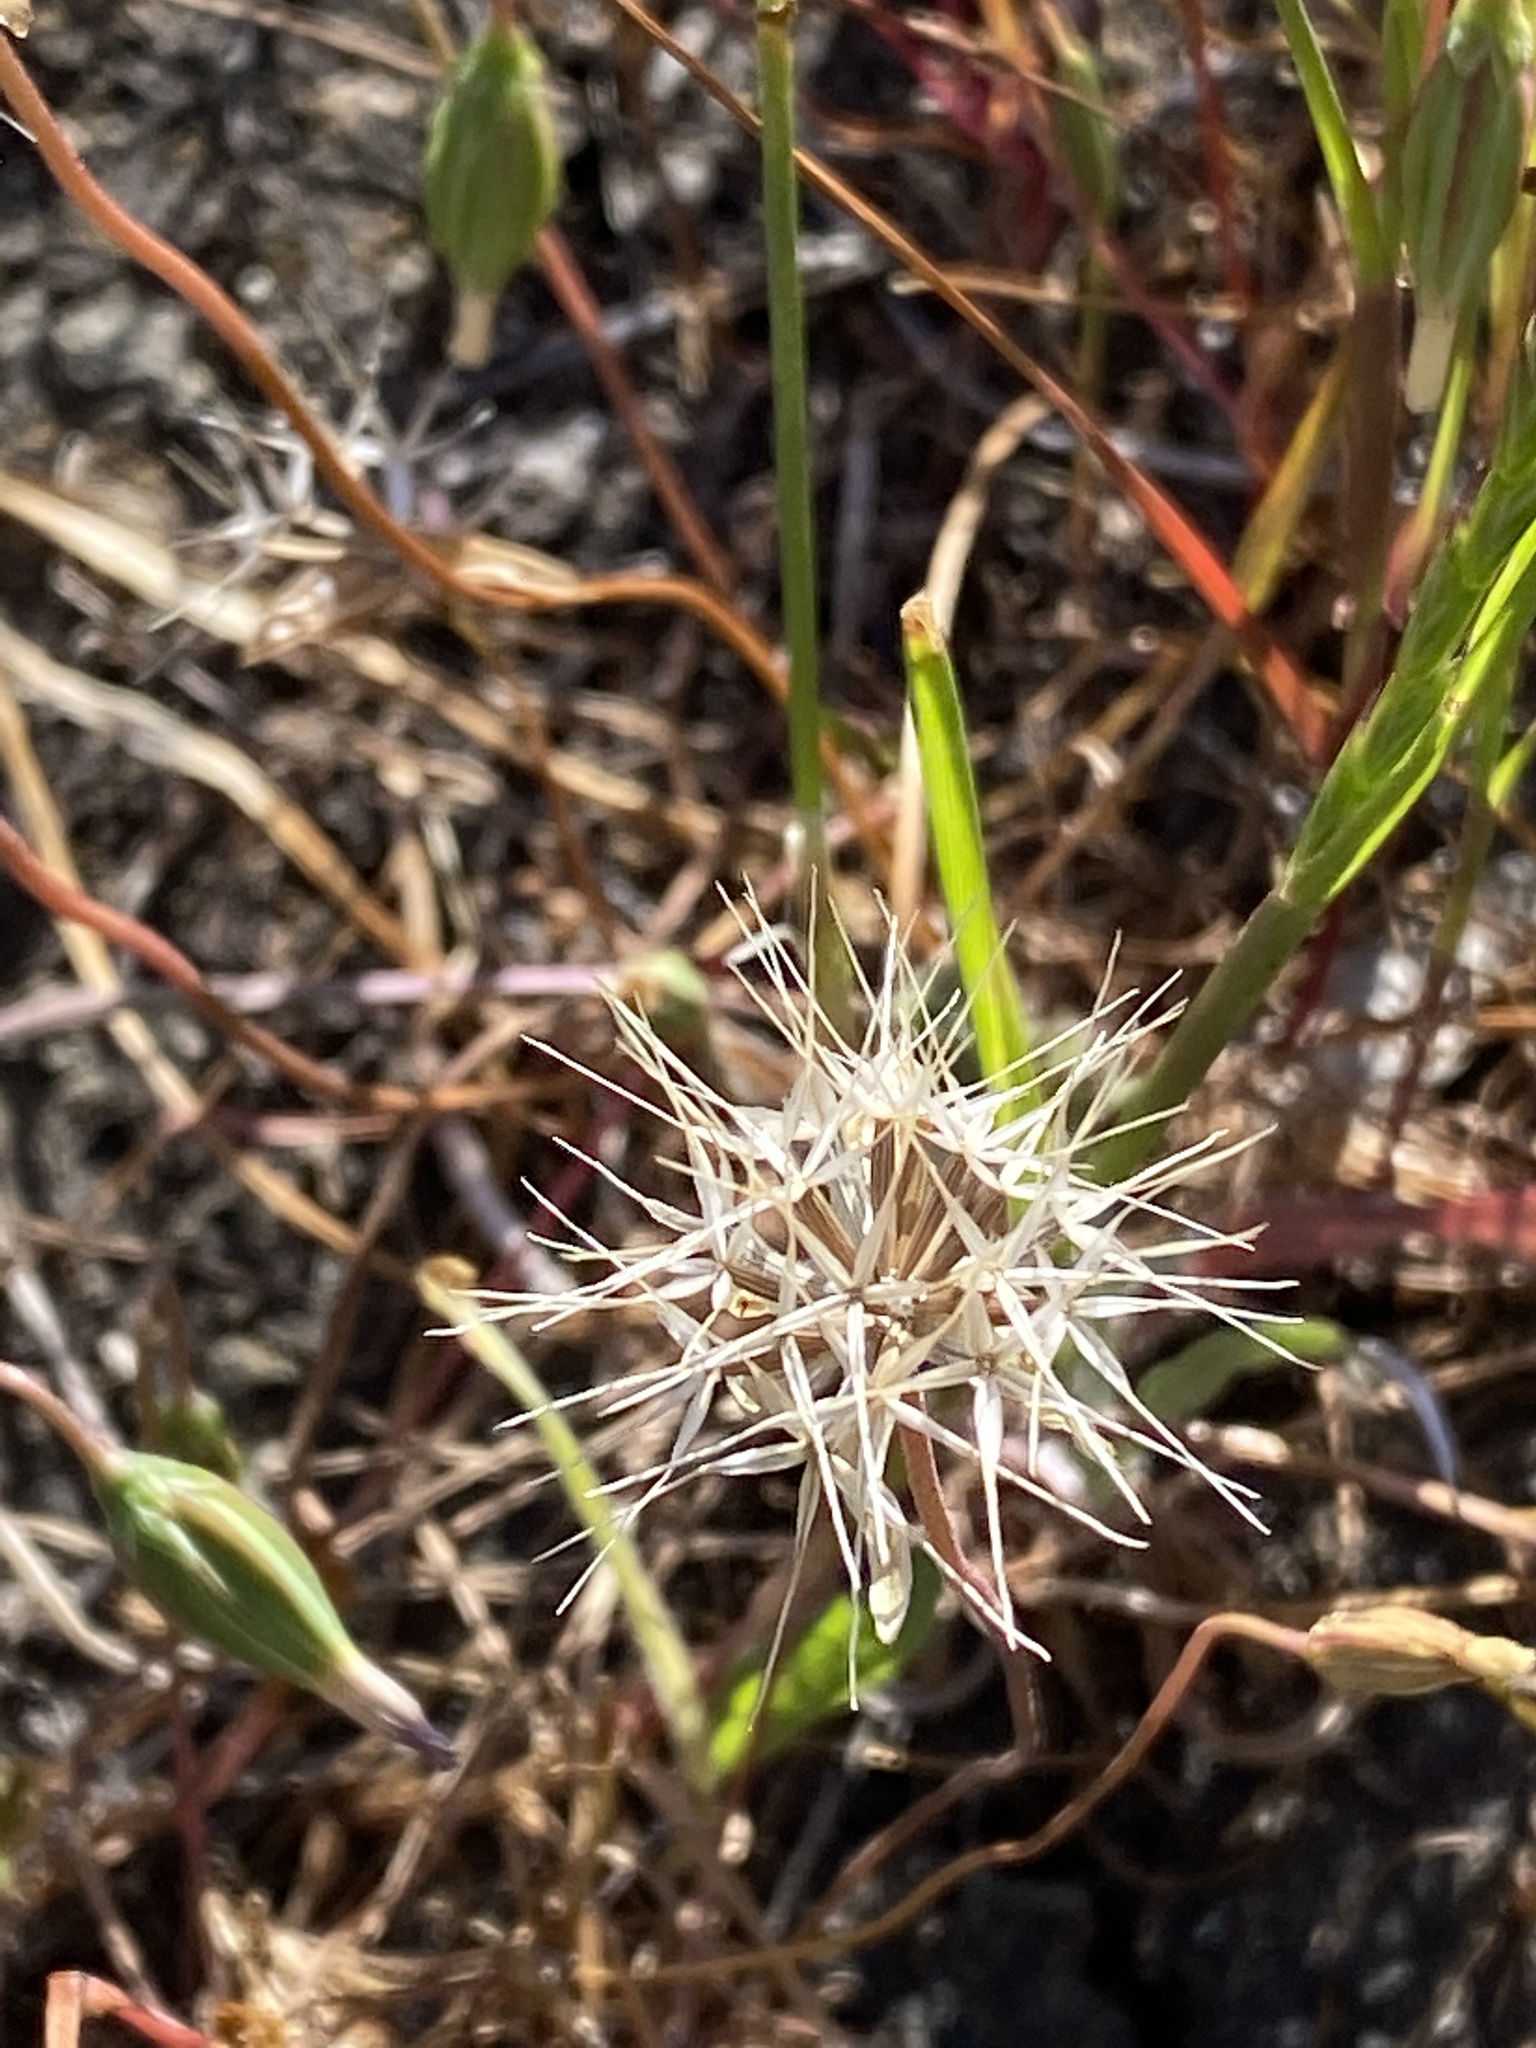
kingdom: Plantae
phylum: Tracheophyta
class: Magnoliopsida
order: Asterales
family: Asteraceae
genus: Microseris
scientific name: Microseris lindleyi
